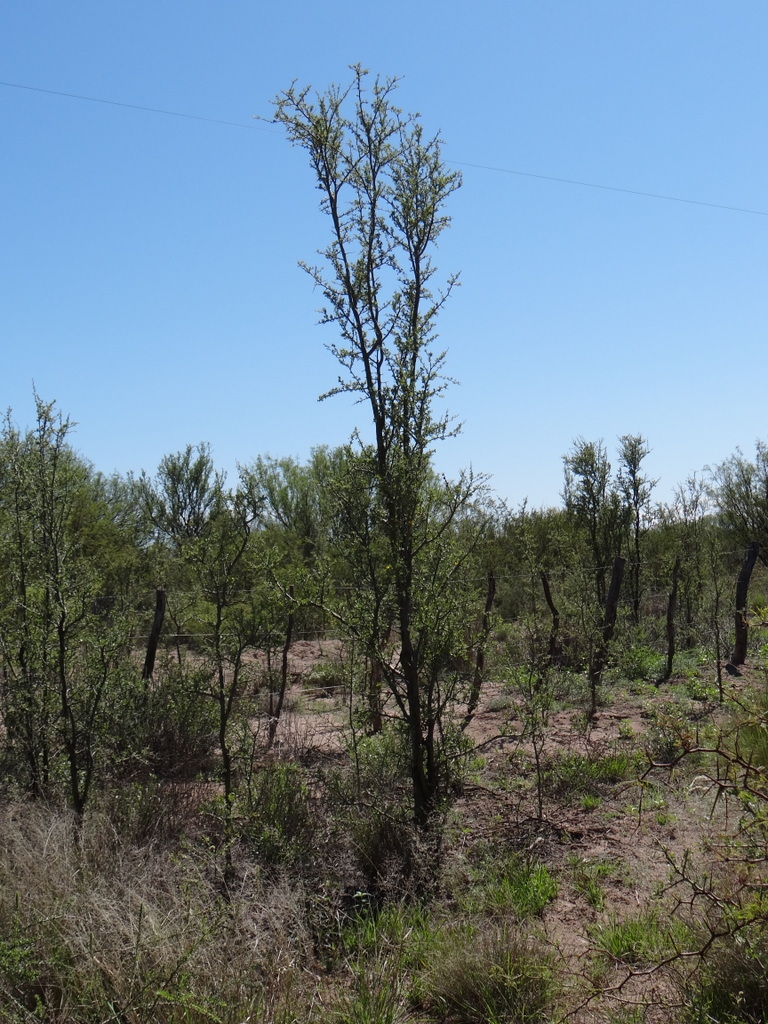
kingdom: Plantae
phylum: Tracheophyta
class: Magnoliopsida
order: Fabales
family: Fabaceae
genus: Geoffroea
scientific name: Geoffroea decorticans
